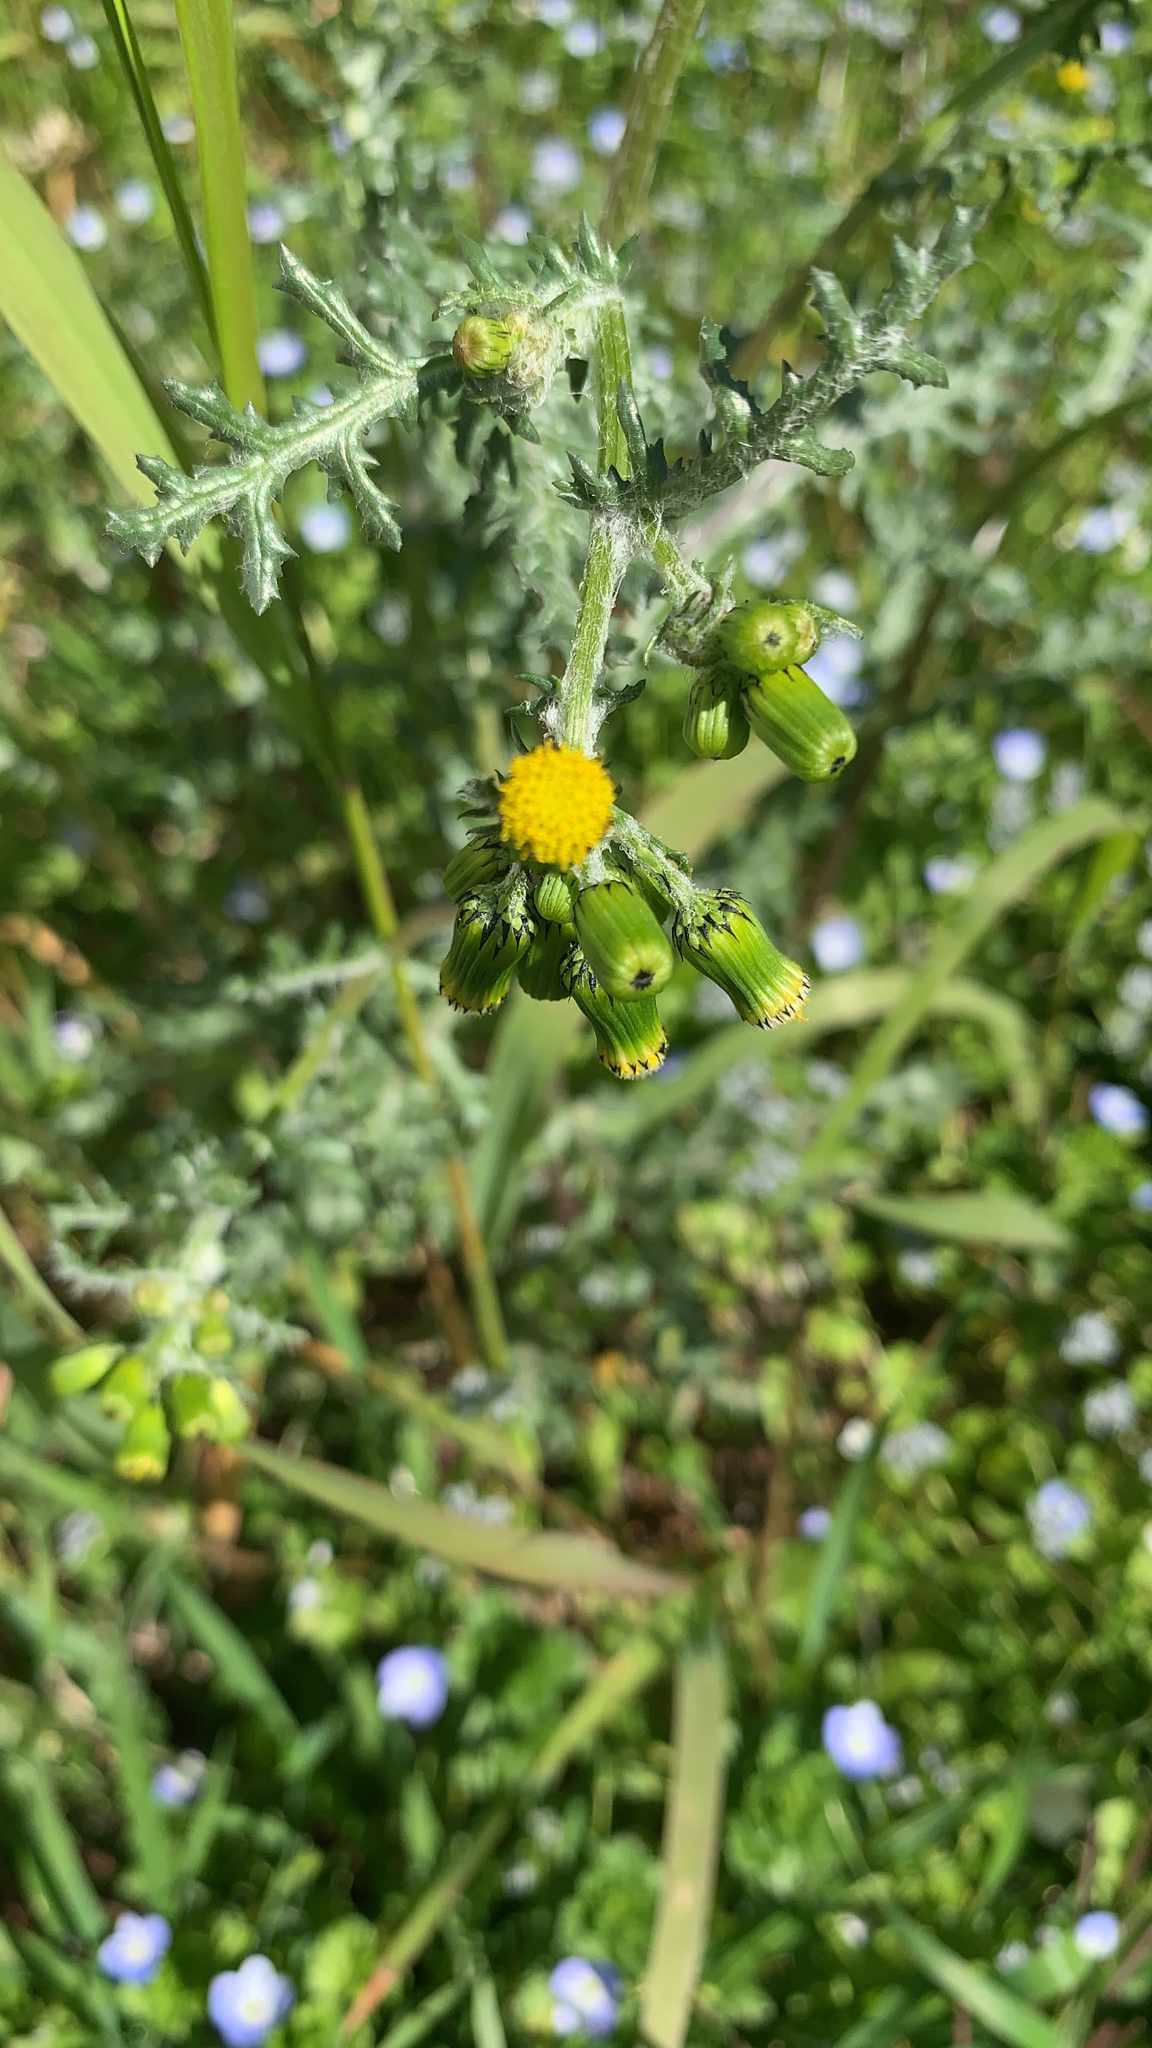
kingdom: Plantae
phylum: Tracheophyta
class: Magnoliopsida
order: Asterales
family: Asteraceae
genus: Senecio
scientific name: Senecio vulgaris
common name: Old-man-in-the-spring
